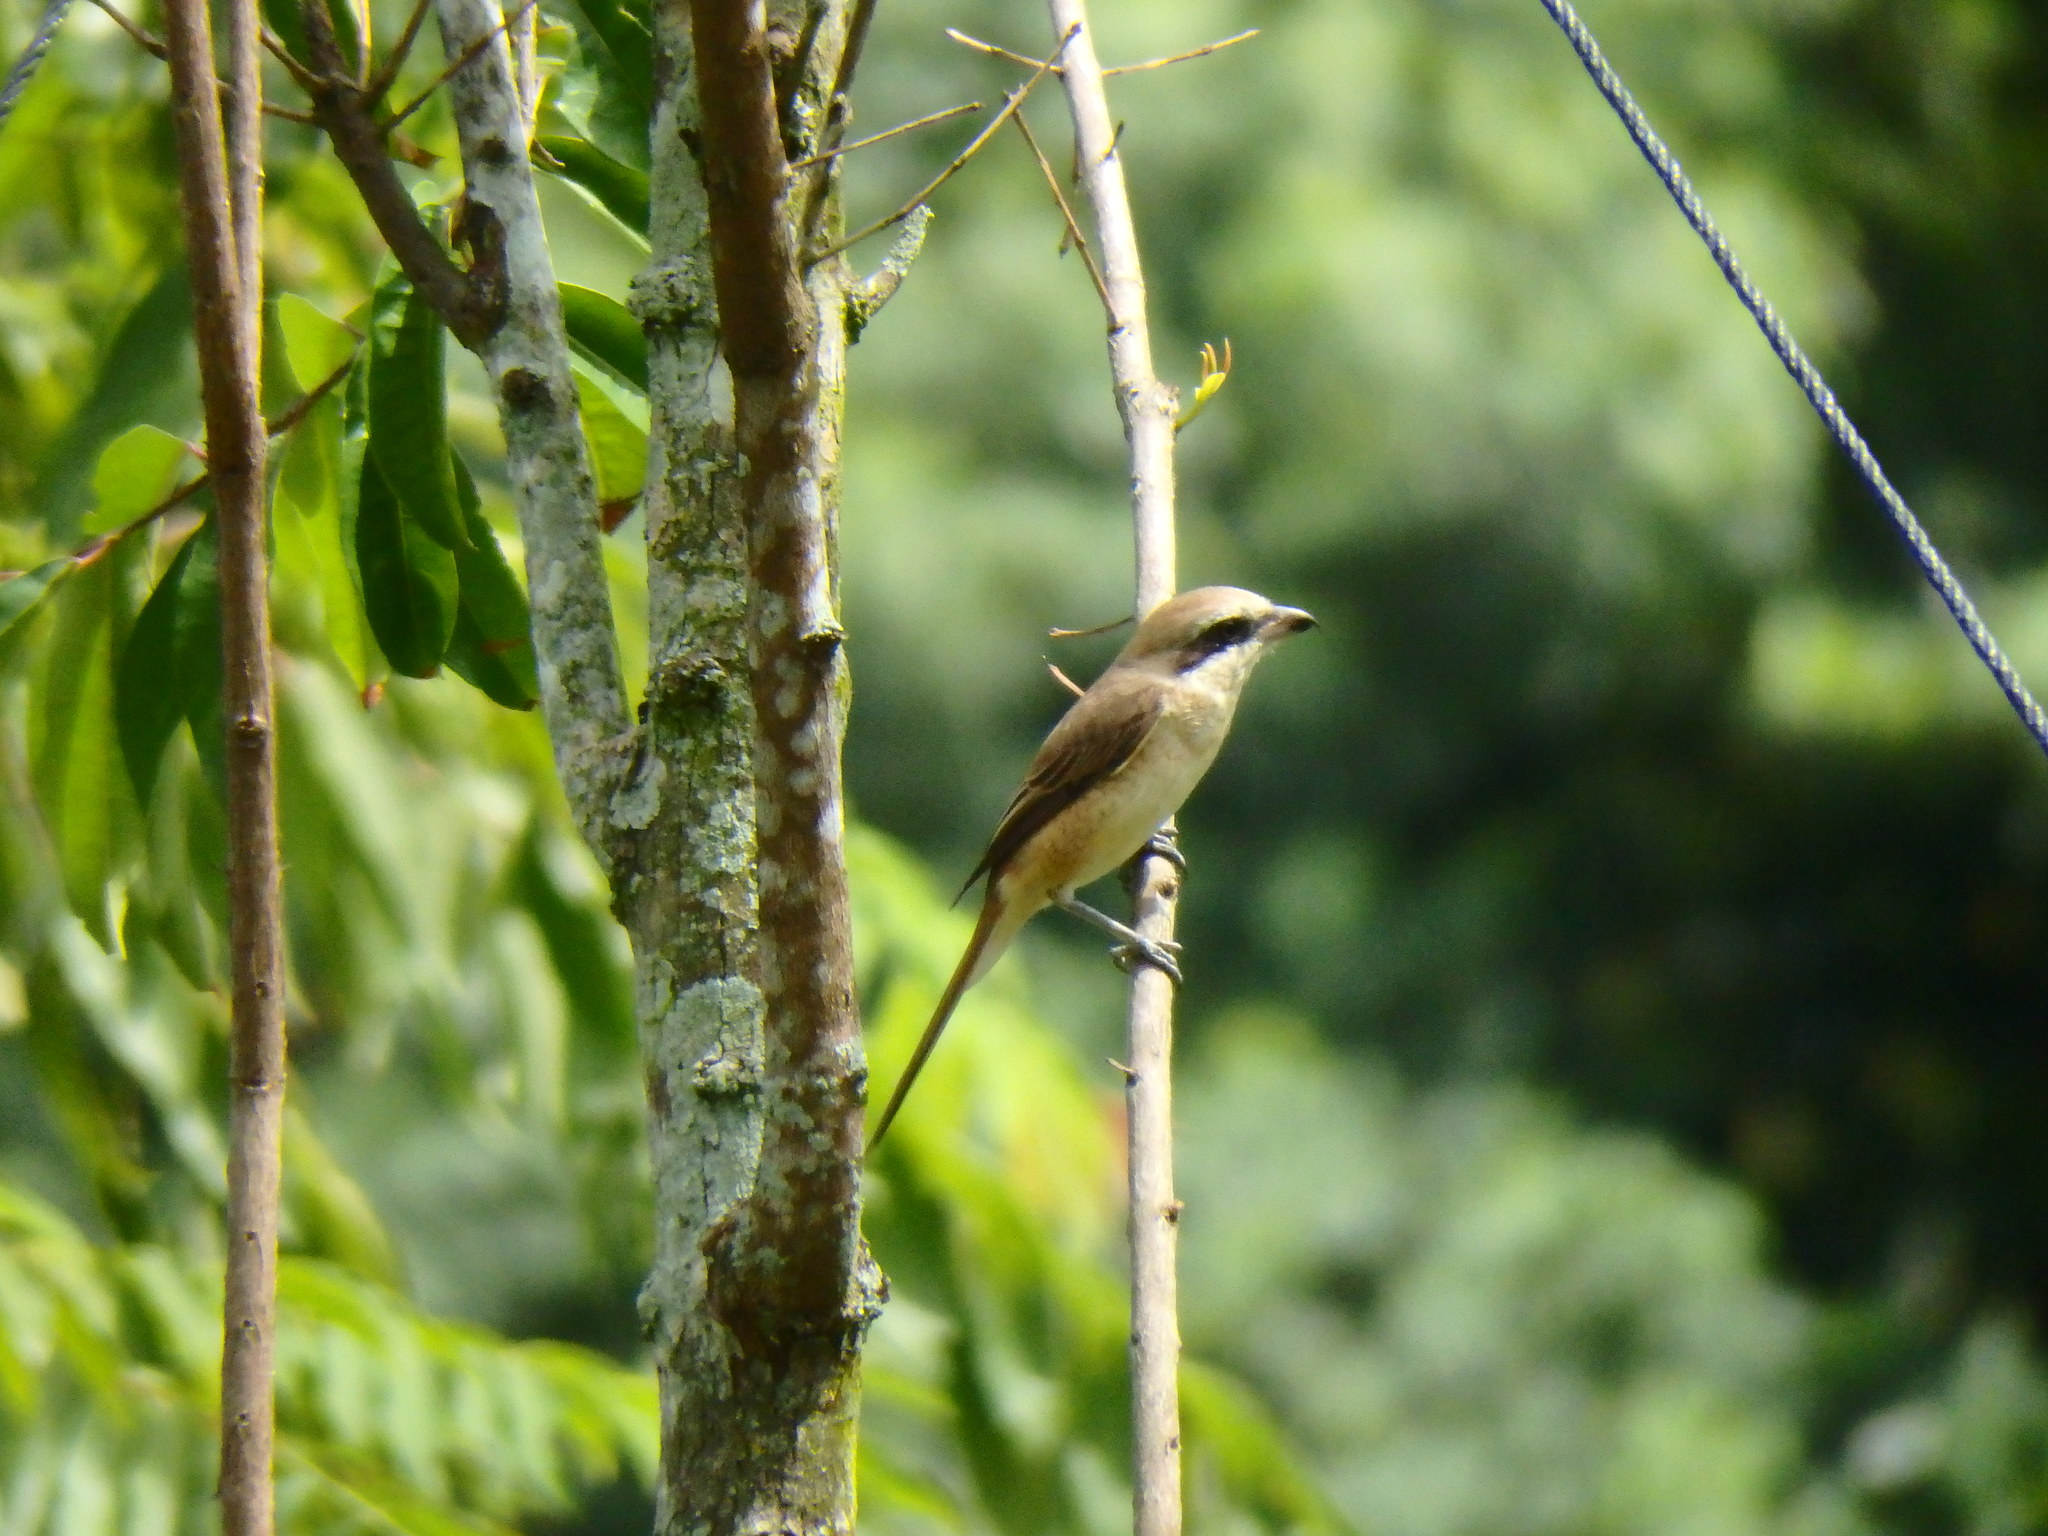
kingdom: Animalia
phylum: Chordata
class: Aves
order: Passeriformes
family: Laniidae
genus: Lanius
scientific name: Lanius cristatus
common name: Brown shrike
